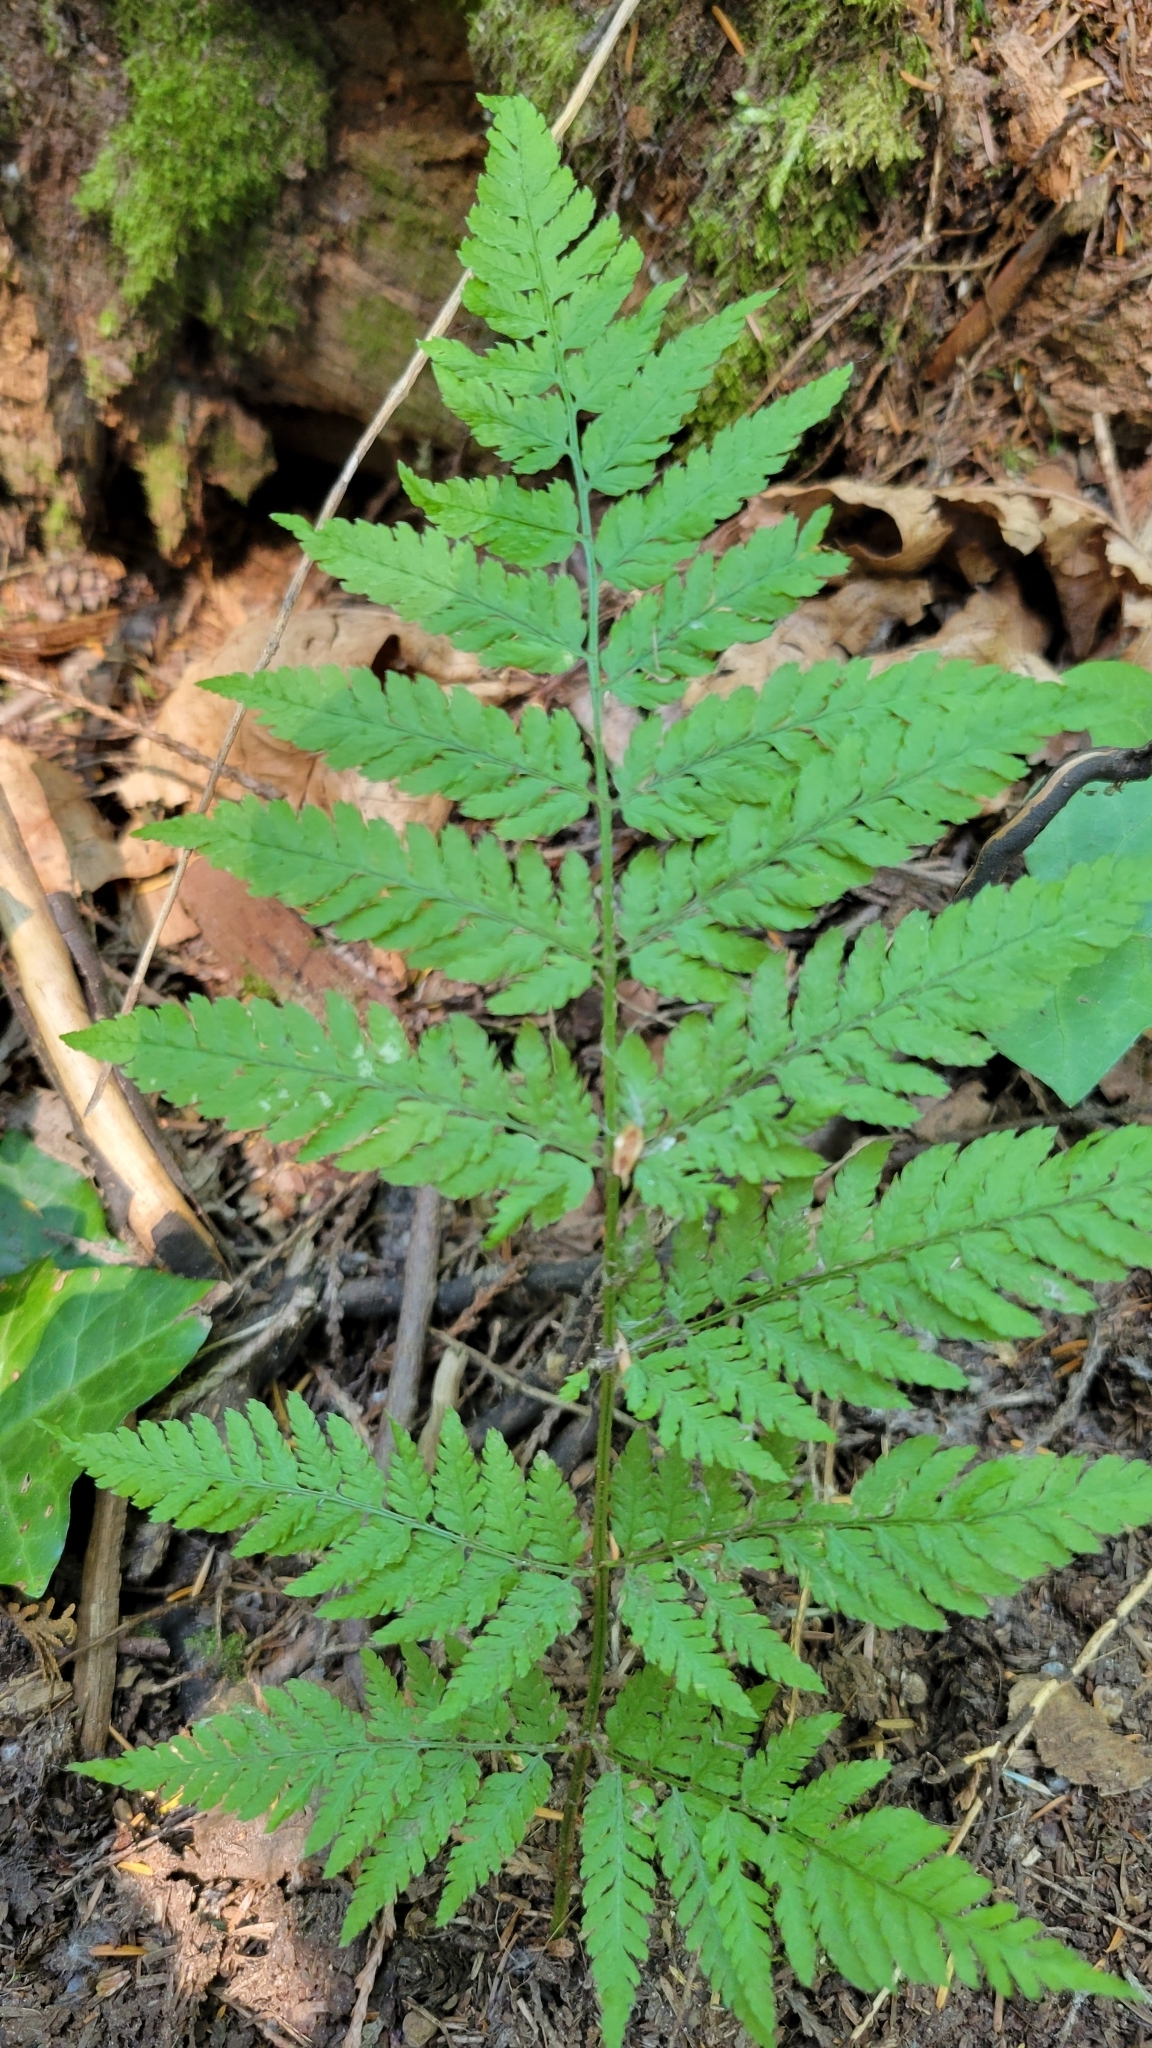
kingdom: Plantae
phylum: Tracheophyta
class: Polypodiopsida
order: Polypodiales
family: Dryopteridaceae
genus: Dryopteris
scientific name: Dryopteris expansa
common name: Northern buckler fern
